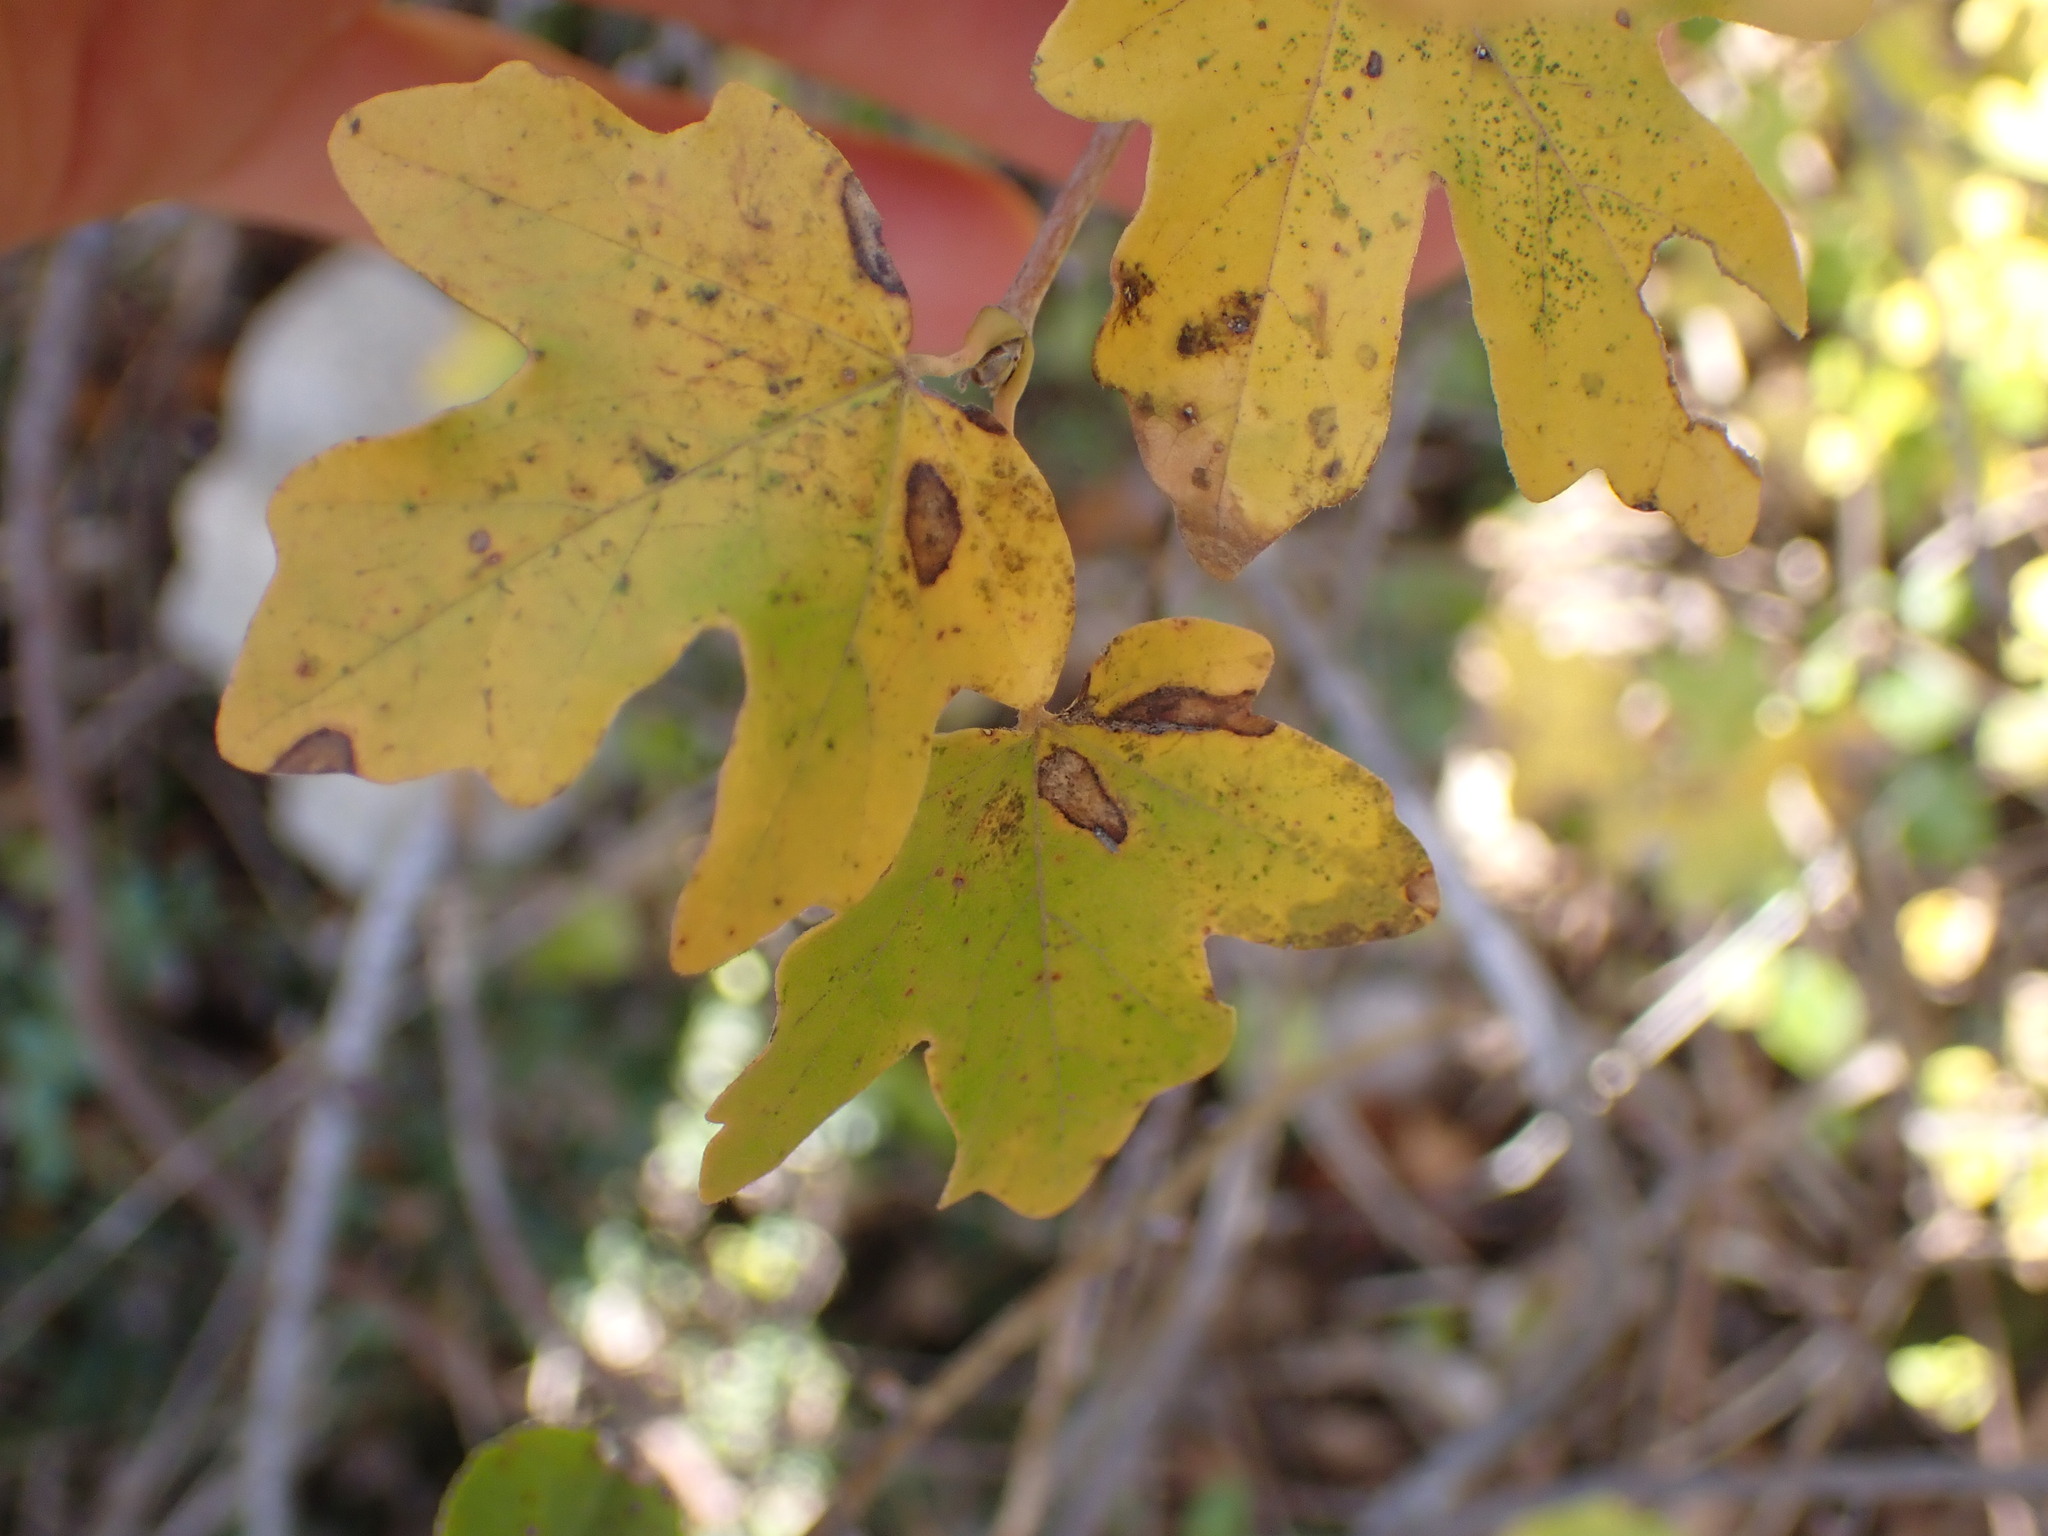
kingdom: Plantae
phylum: Tracheophyta
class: Magnoliopsida
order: Sapindales
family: Sapindaceae
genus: Acer
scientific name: Acer campestre
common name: Field maple
